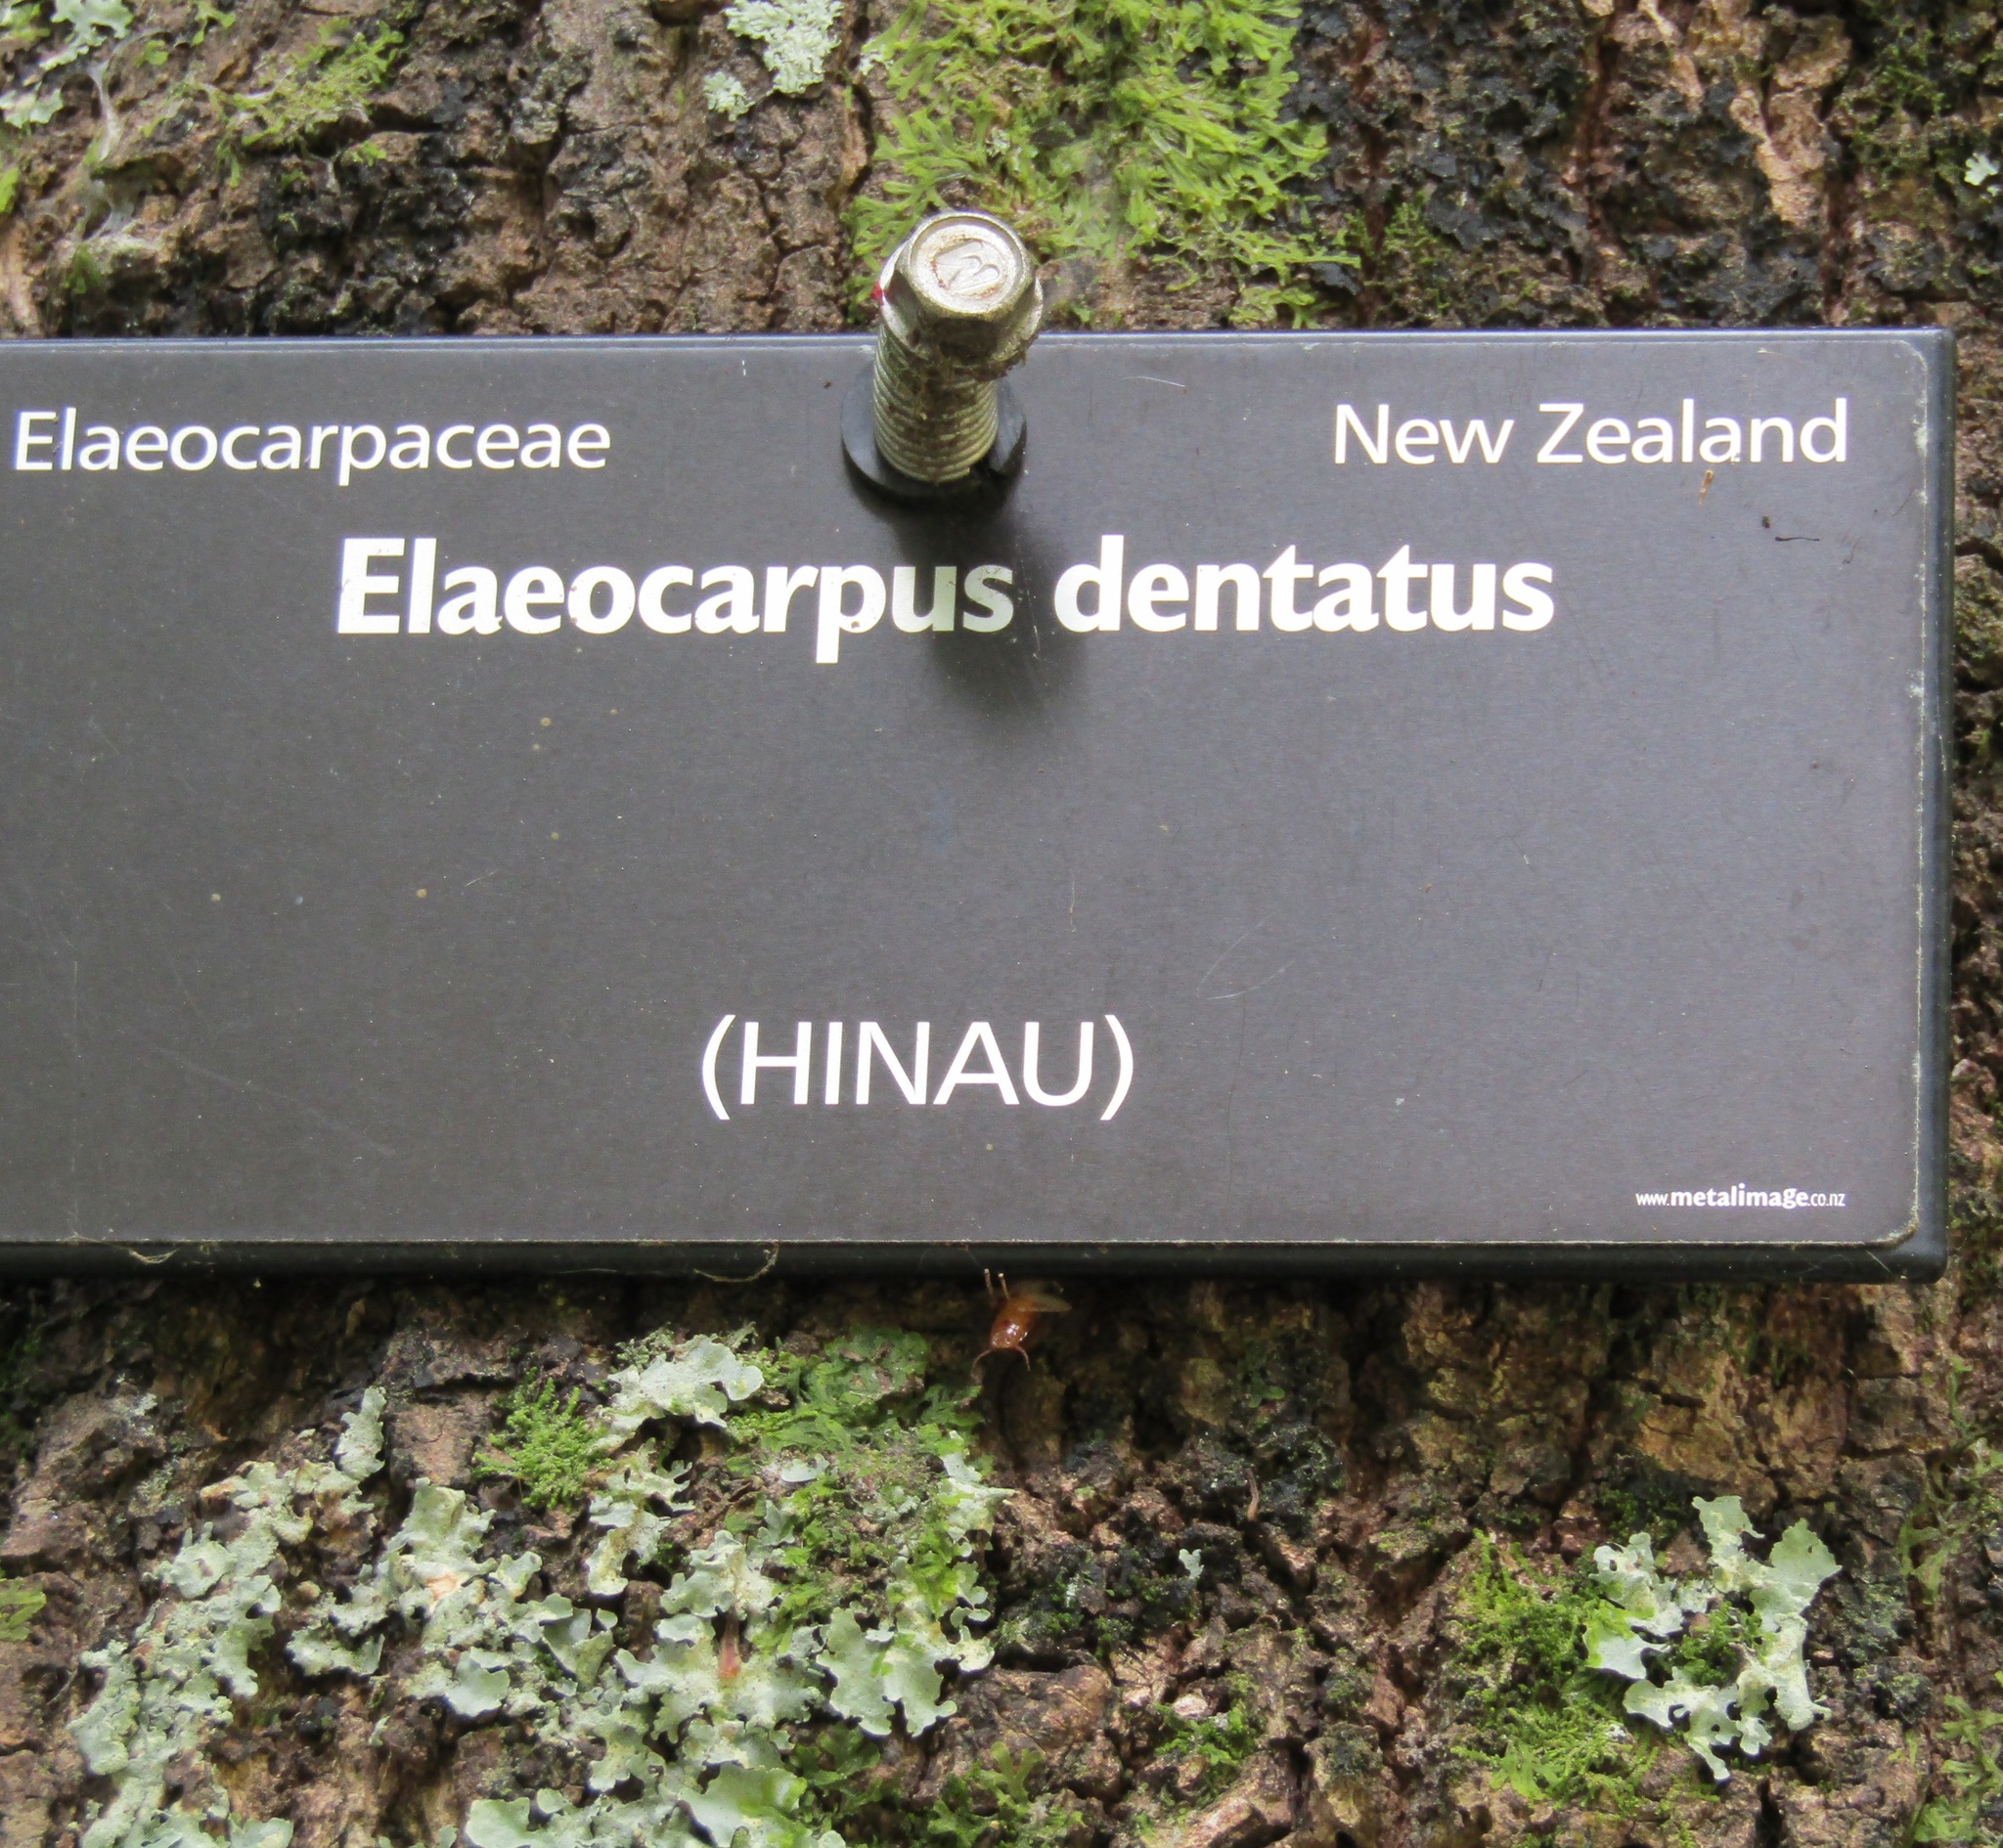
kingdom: Plantae
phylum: Tracheophyta
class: Magnoliopsida
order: Oxalidales
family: Elaeocarpaceae
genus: Elaeocarpus
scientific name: Elaeocarpus dentatus
